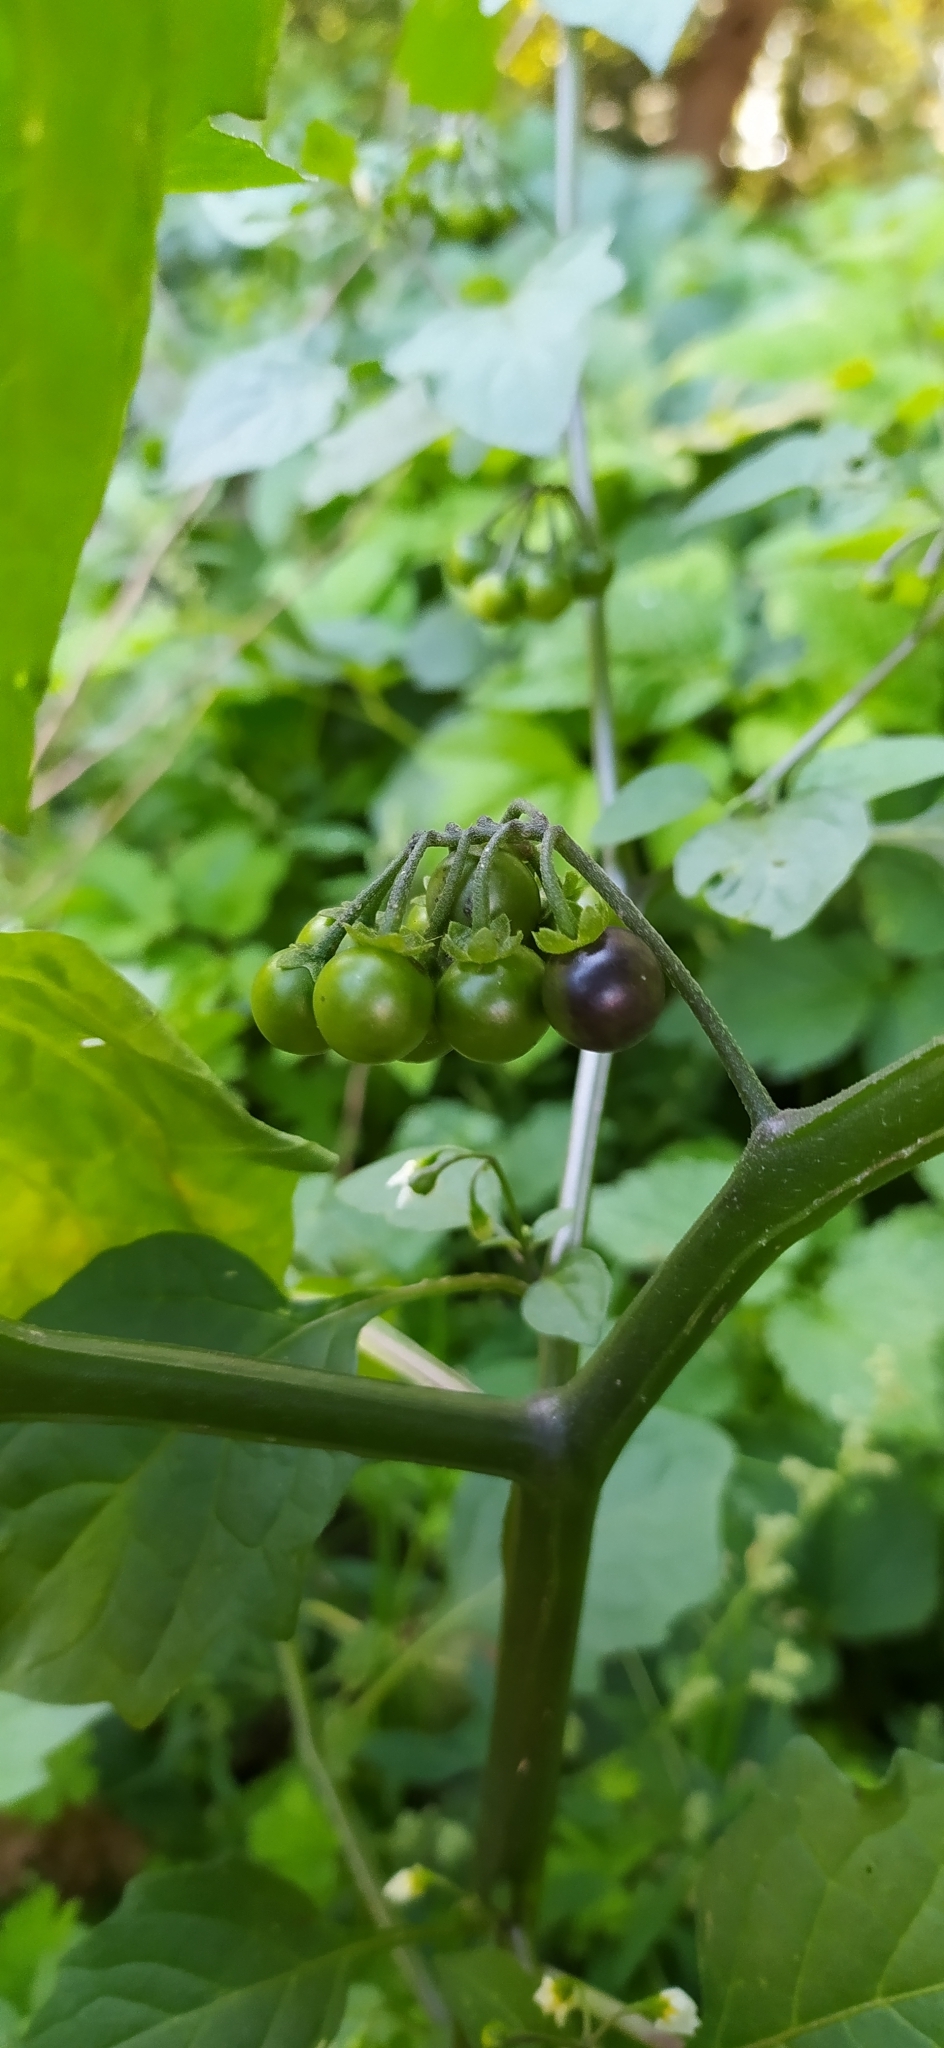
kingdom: Plantae
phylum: Tracheophyta
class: Magnoliopsida
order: Solanales
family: Solanaceae
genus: Solanum
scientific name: Solanum nigrum
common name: Black nightshade
